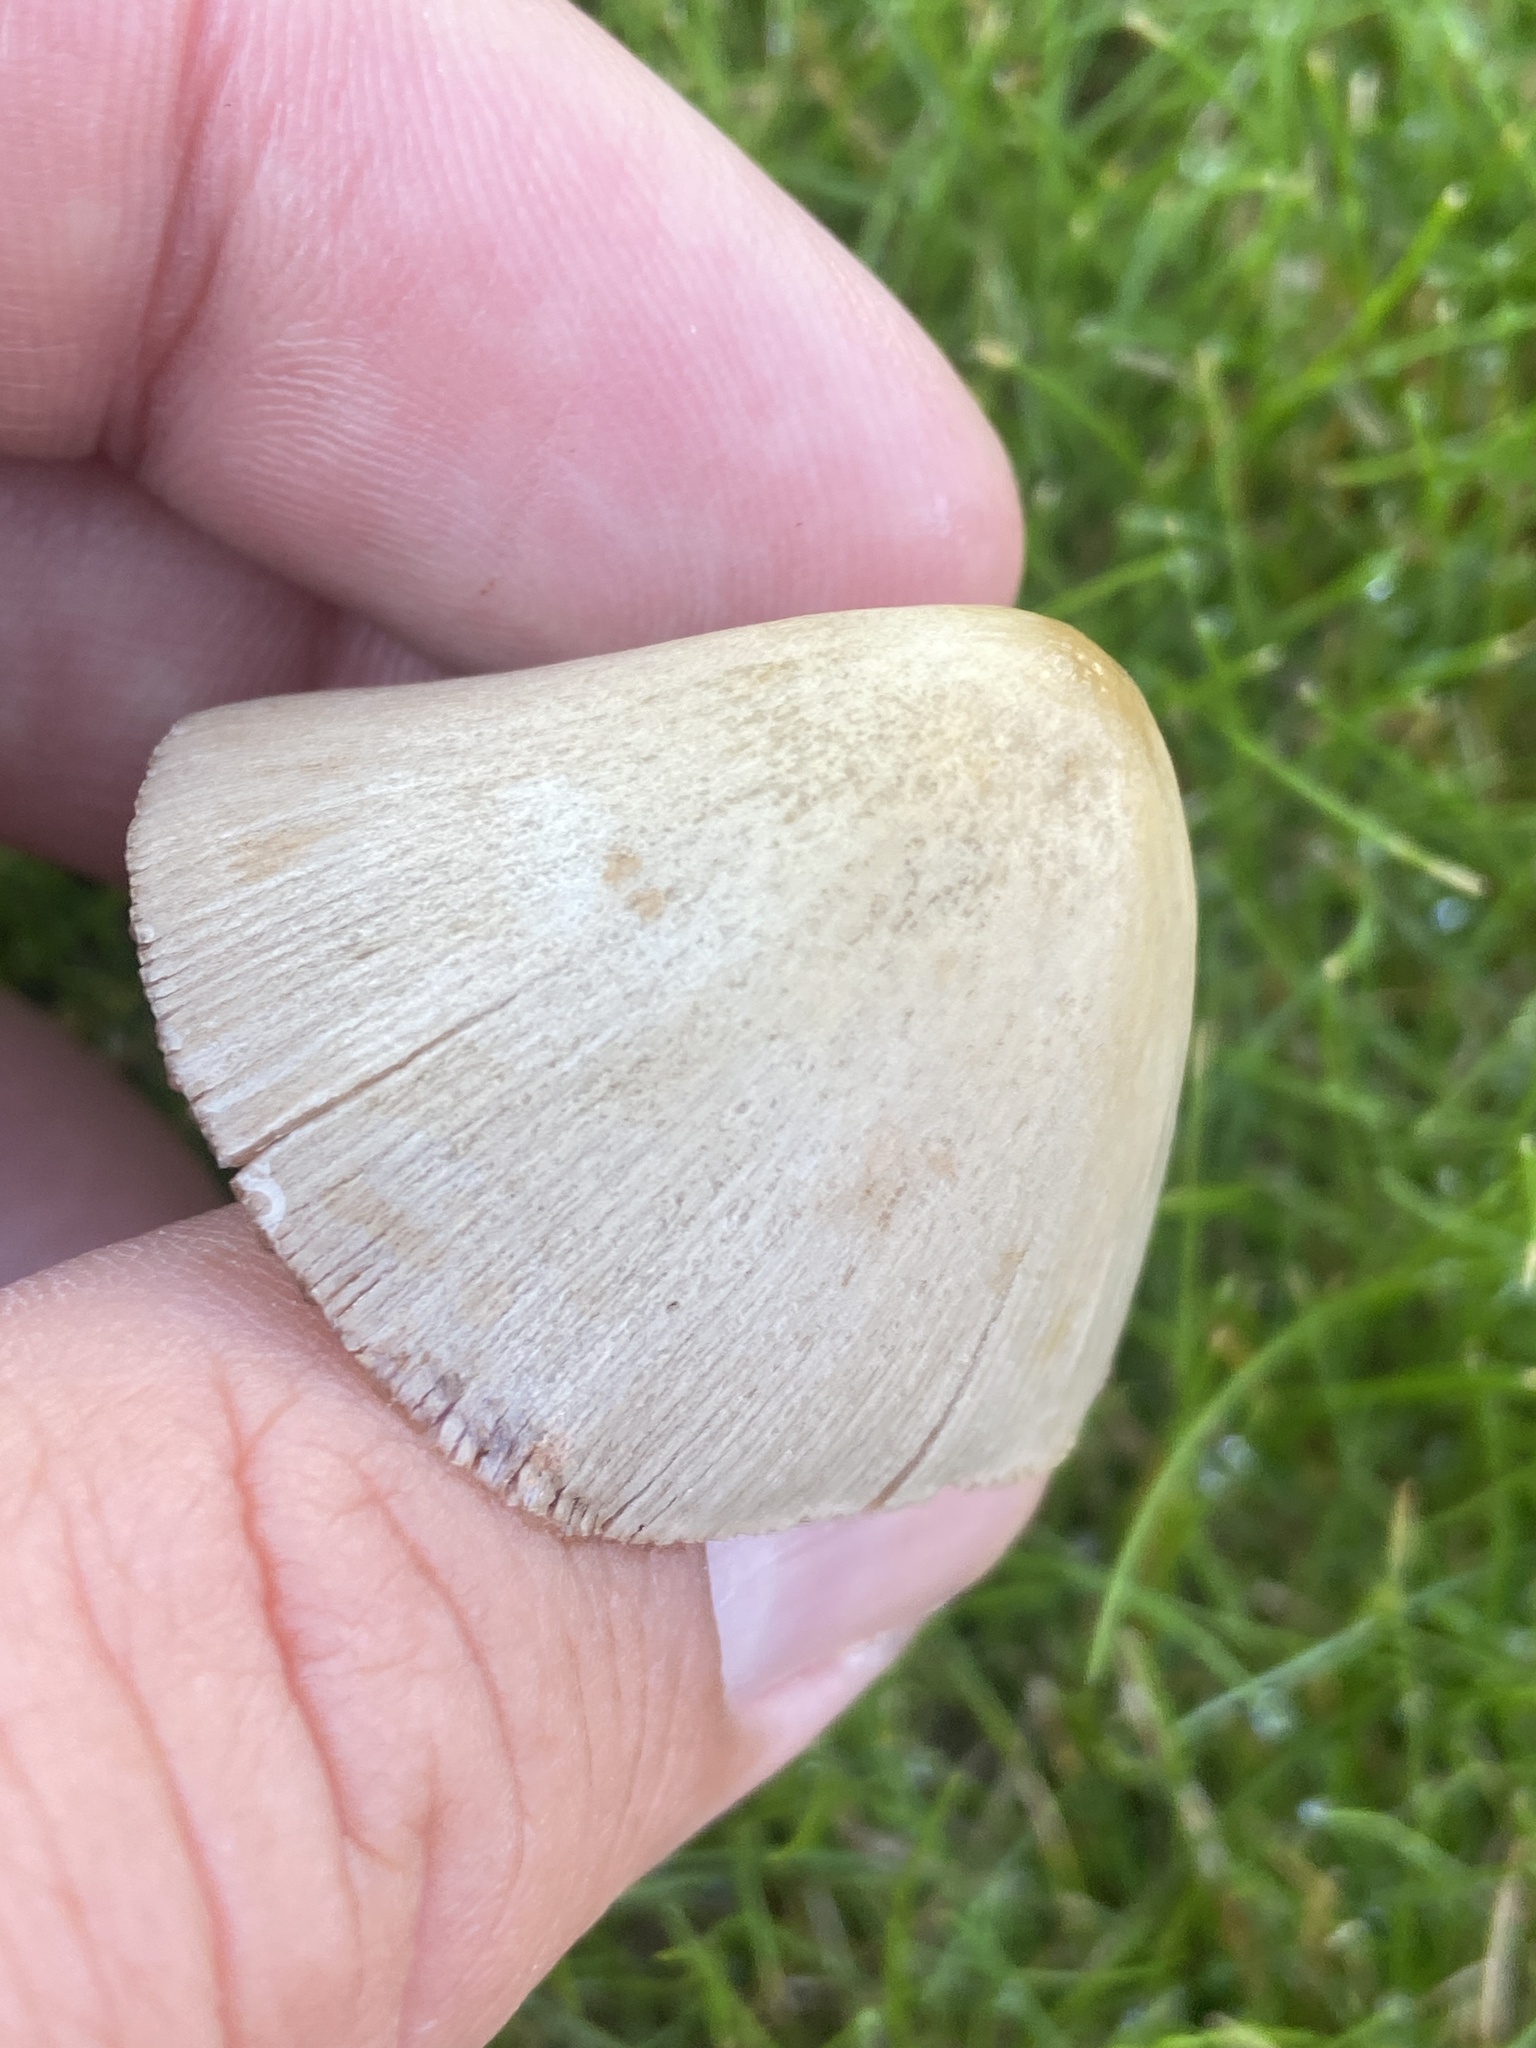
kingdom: Fungi
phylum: Basidiomycota
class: Agaricomycetes
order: Agaricales
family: Bolbitiaceae
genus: Conocybe
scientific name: Conocybe apala
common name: Milky conecap
